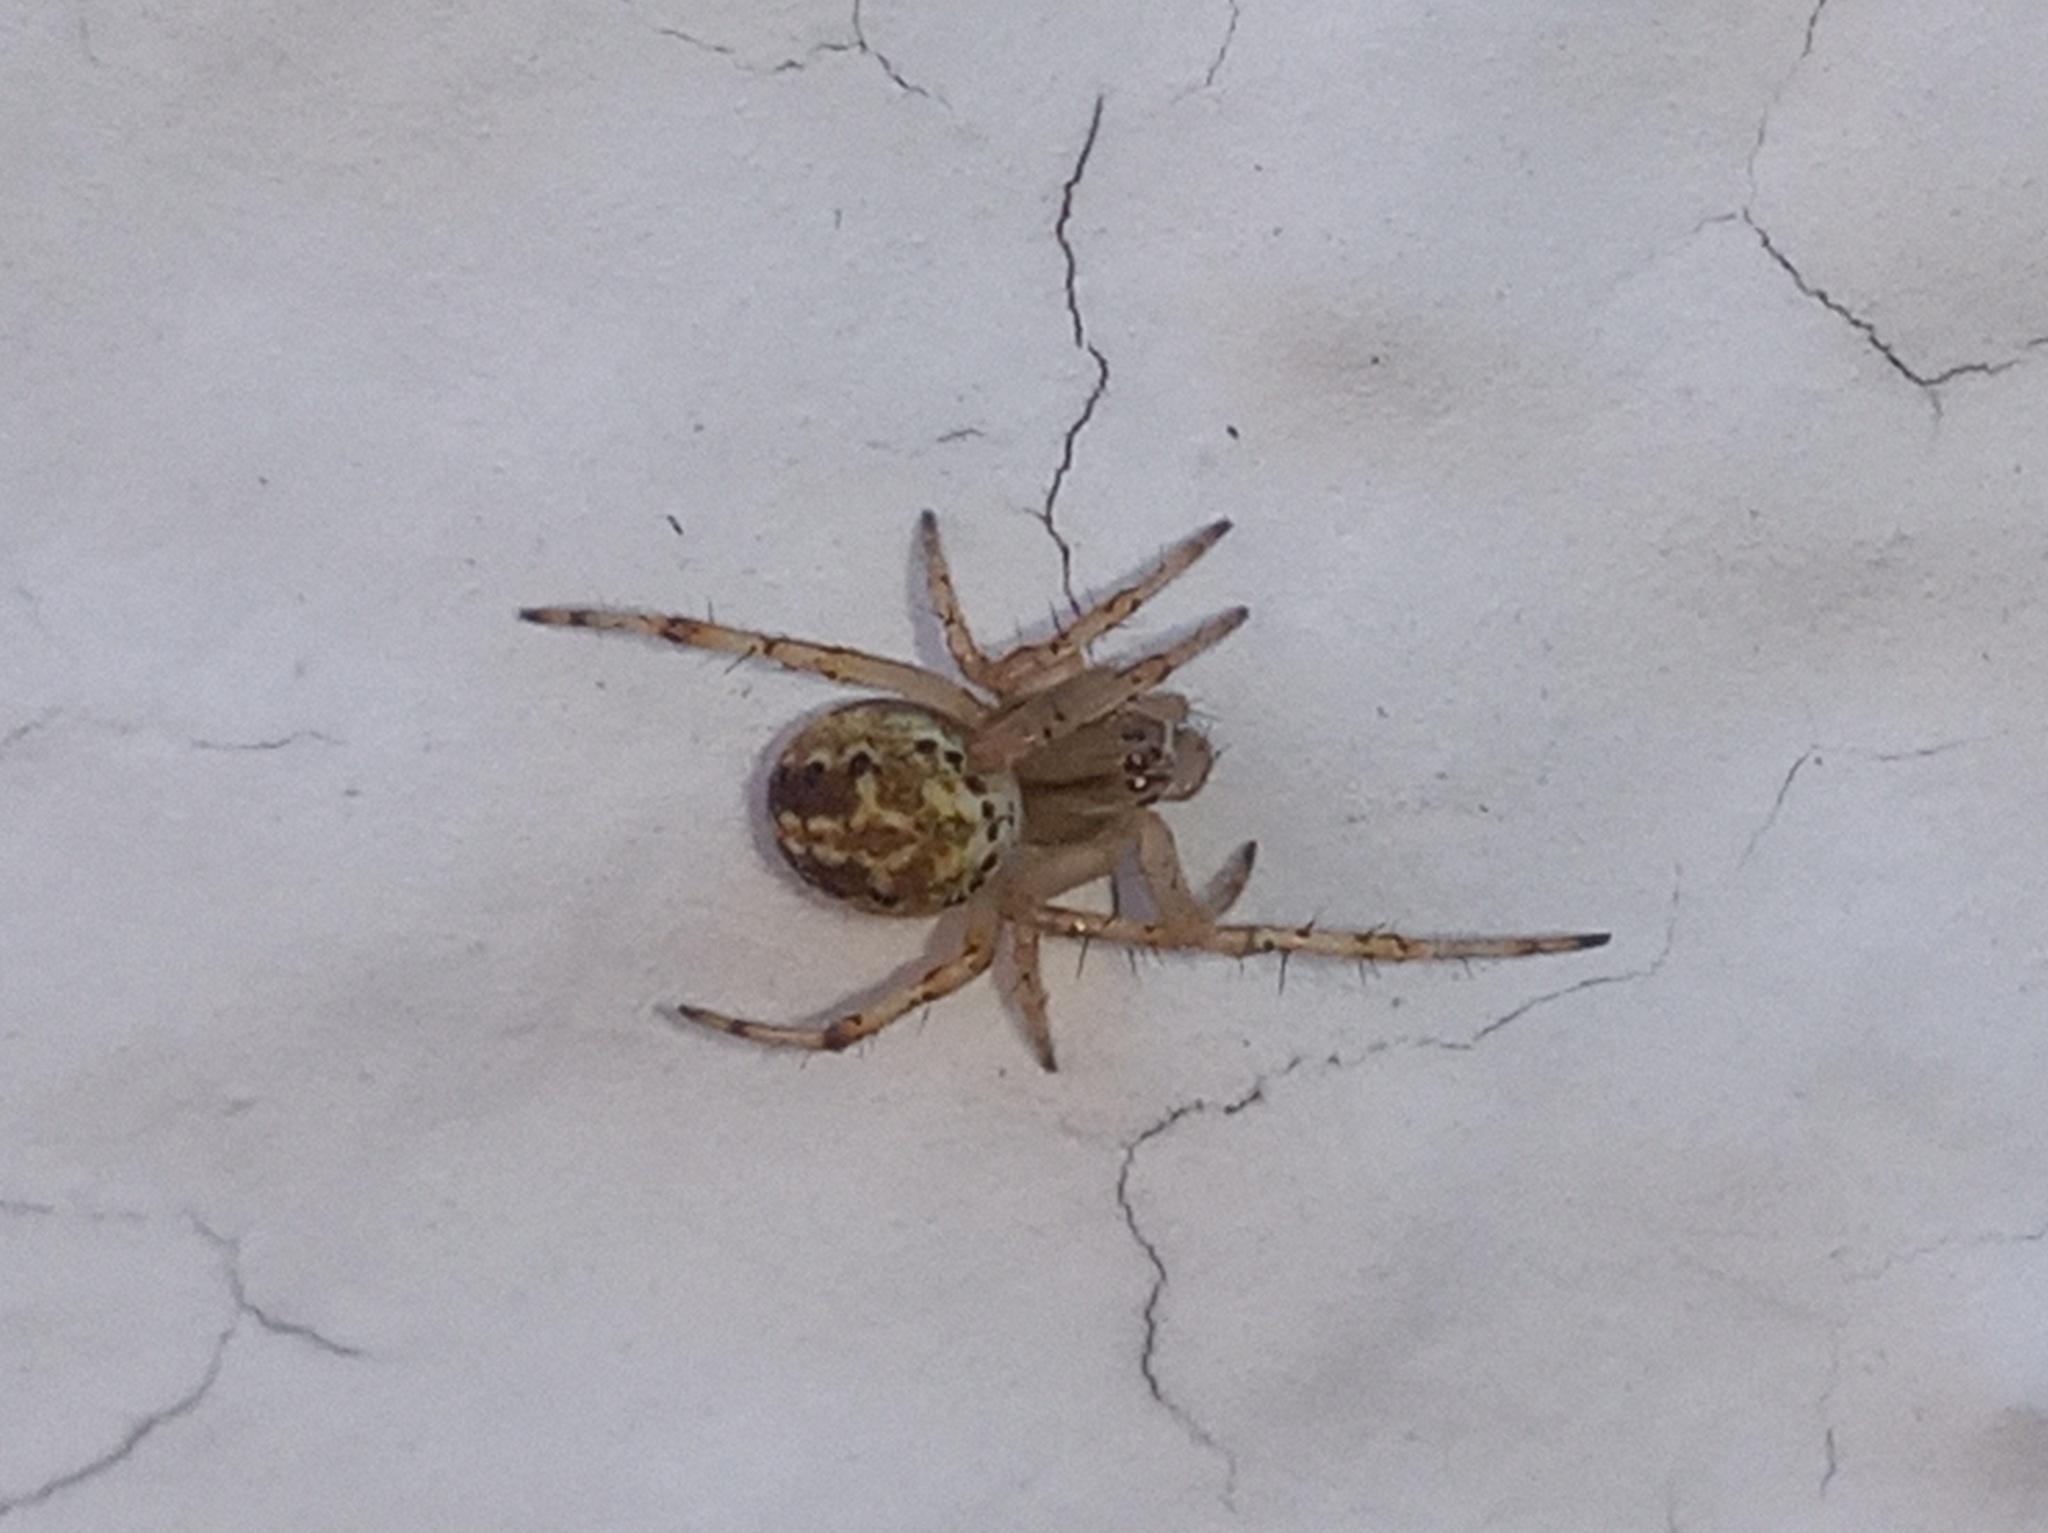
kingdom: Animalia
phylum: Arthropoda
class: Arachnida
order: Araneae
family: Araneidae
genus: Neoscona
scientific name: Neoscona oaxacensis
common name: Orb weavers
